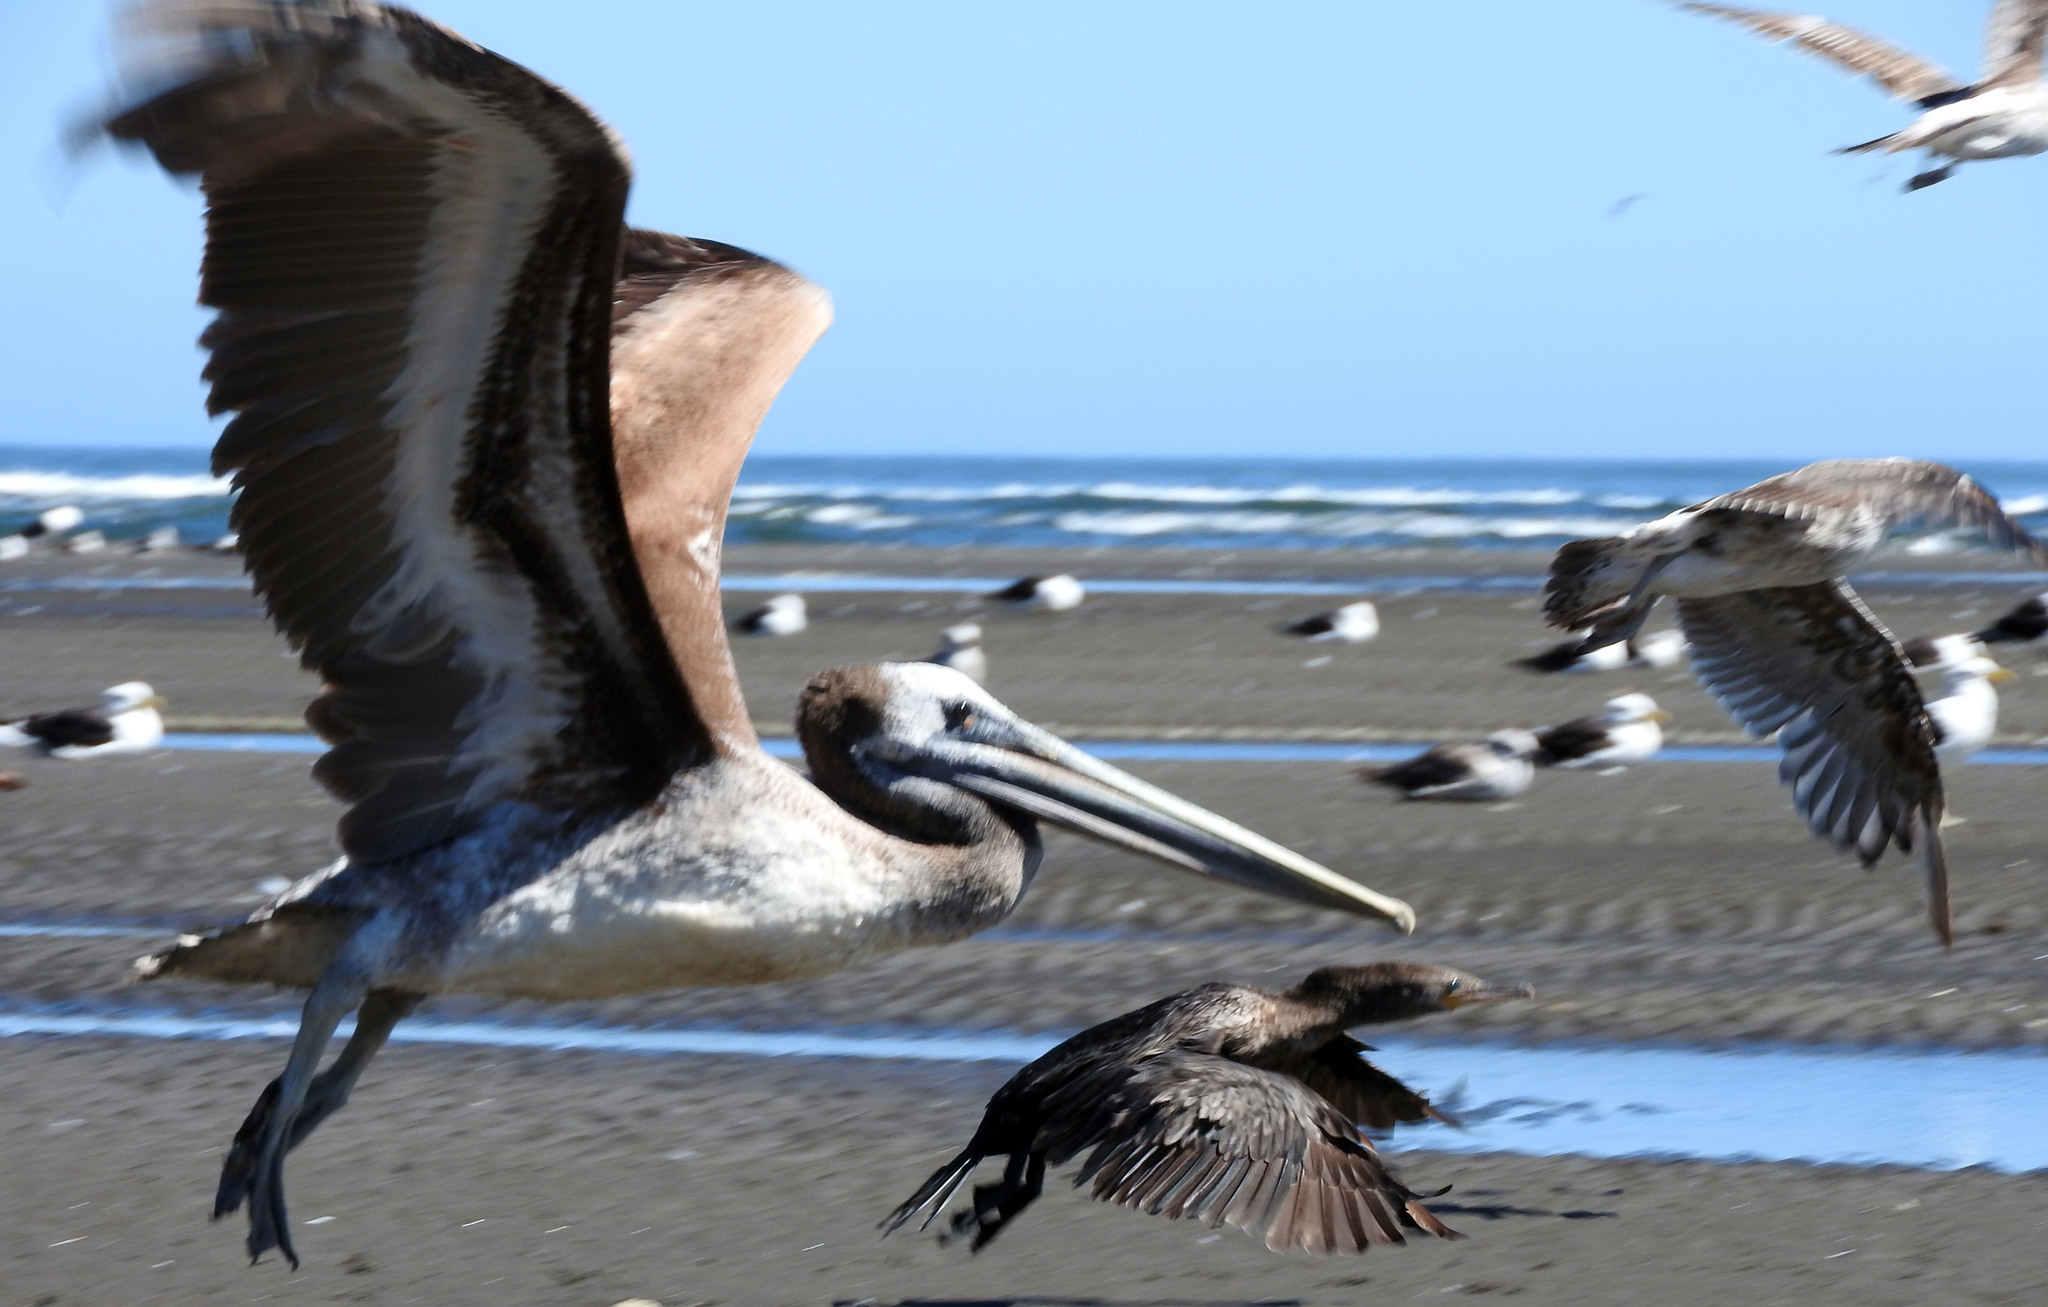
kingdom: Animalia
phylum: Chordata
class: Aves
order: Pelecaniformes
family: Pelecanidae
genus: Pelecanus
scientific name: Pelecanus thagus
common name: Peruvian pelican
